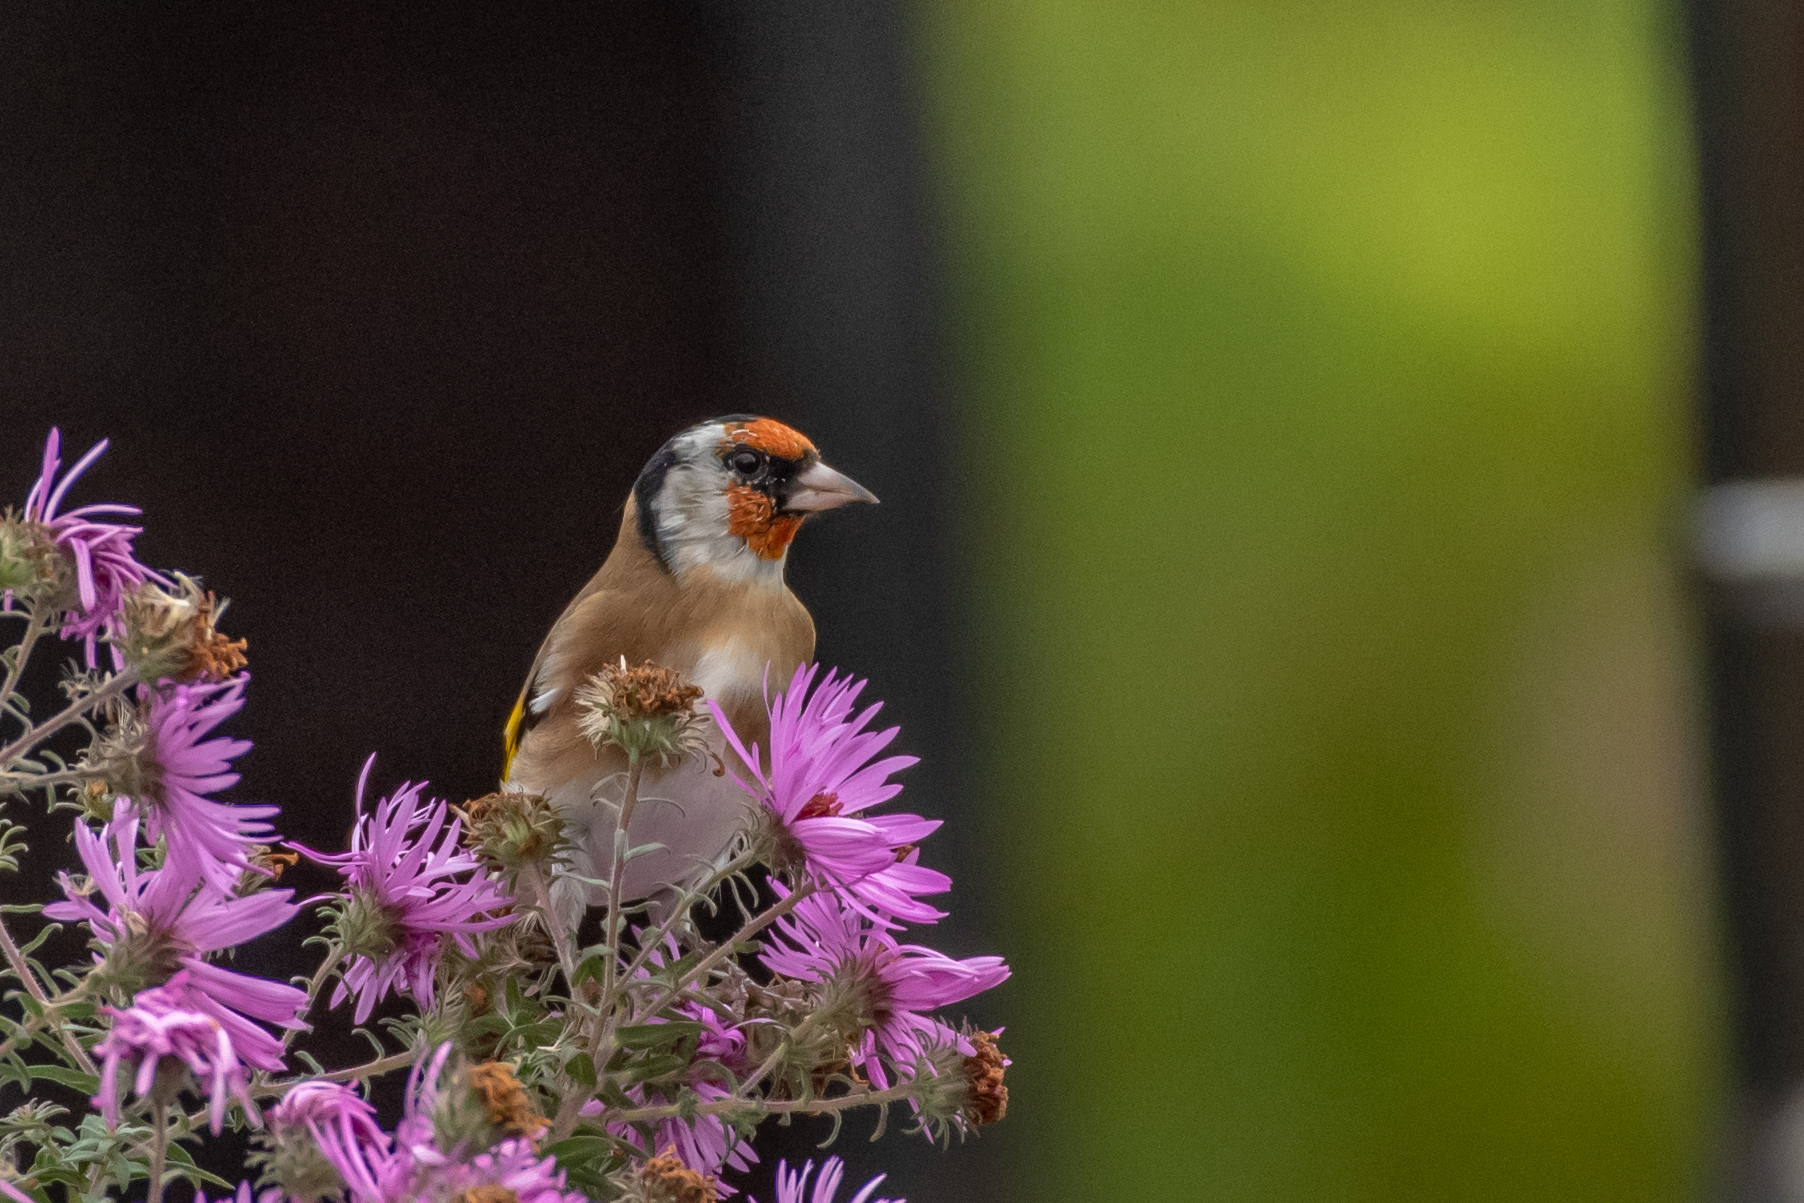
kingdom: Animalia
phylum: Chordata
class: Aves
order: Passeriformes
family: Fringillidae
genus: Carduelis
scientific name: Carduelis carduelis
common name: European goldfinch
